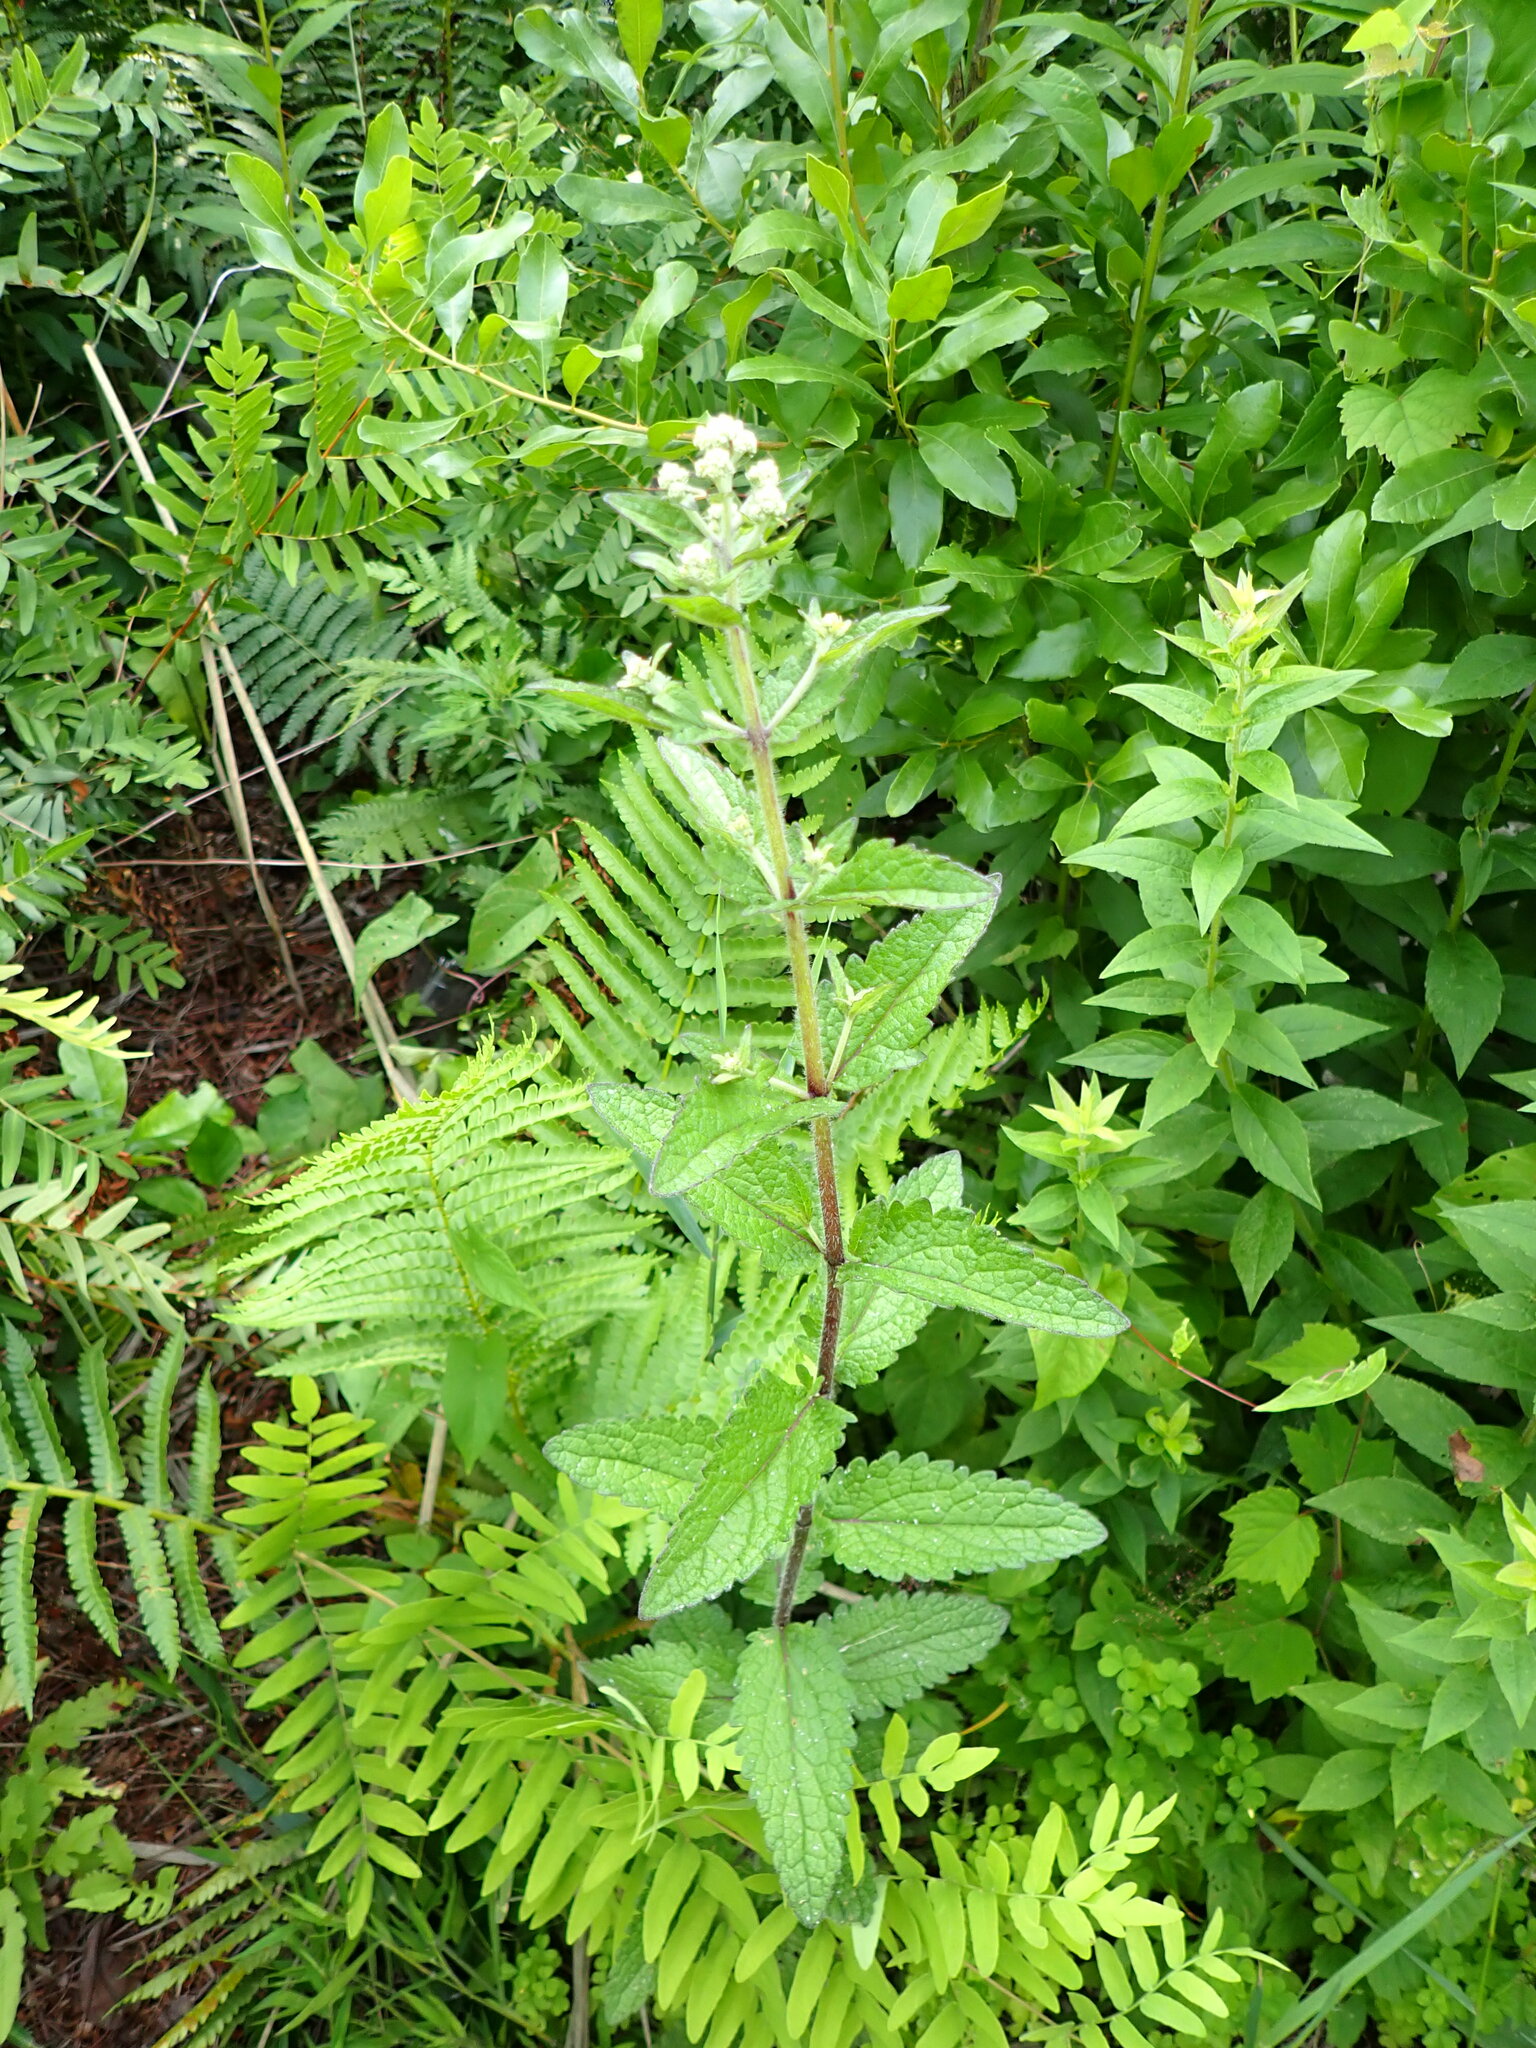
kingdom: Plantae
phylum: Tracheophyta
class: Magnoliopsida
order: Asterales
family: Asteraceae
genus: Eupatorium
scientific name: Eupatorium pilosum
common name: Rough boneset
